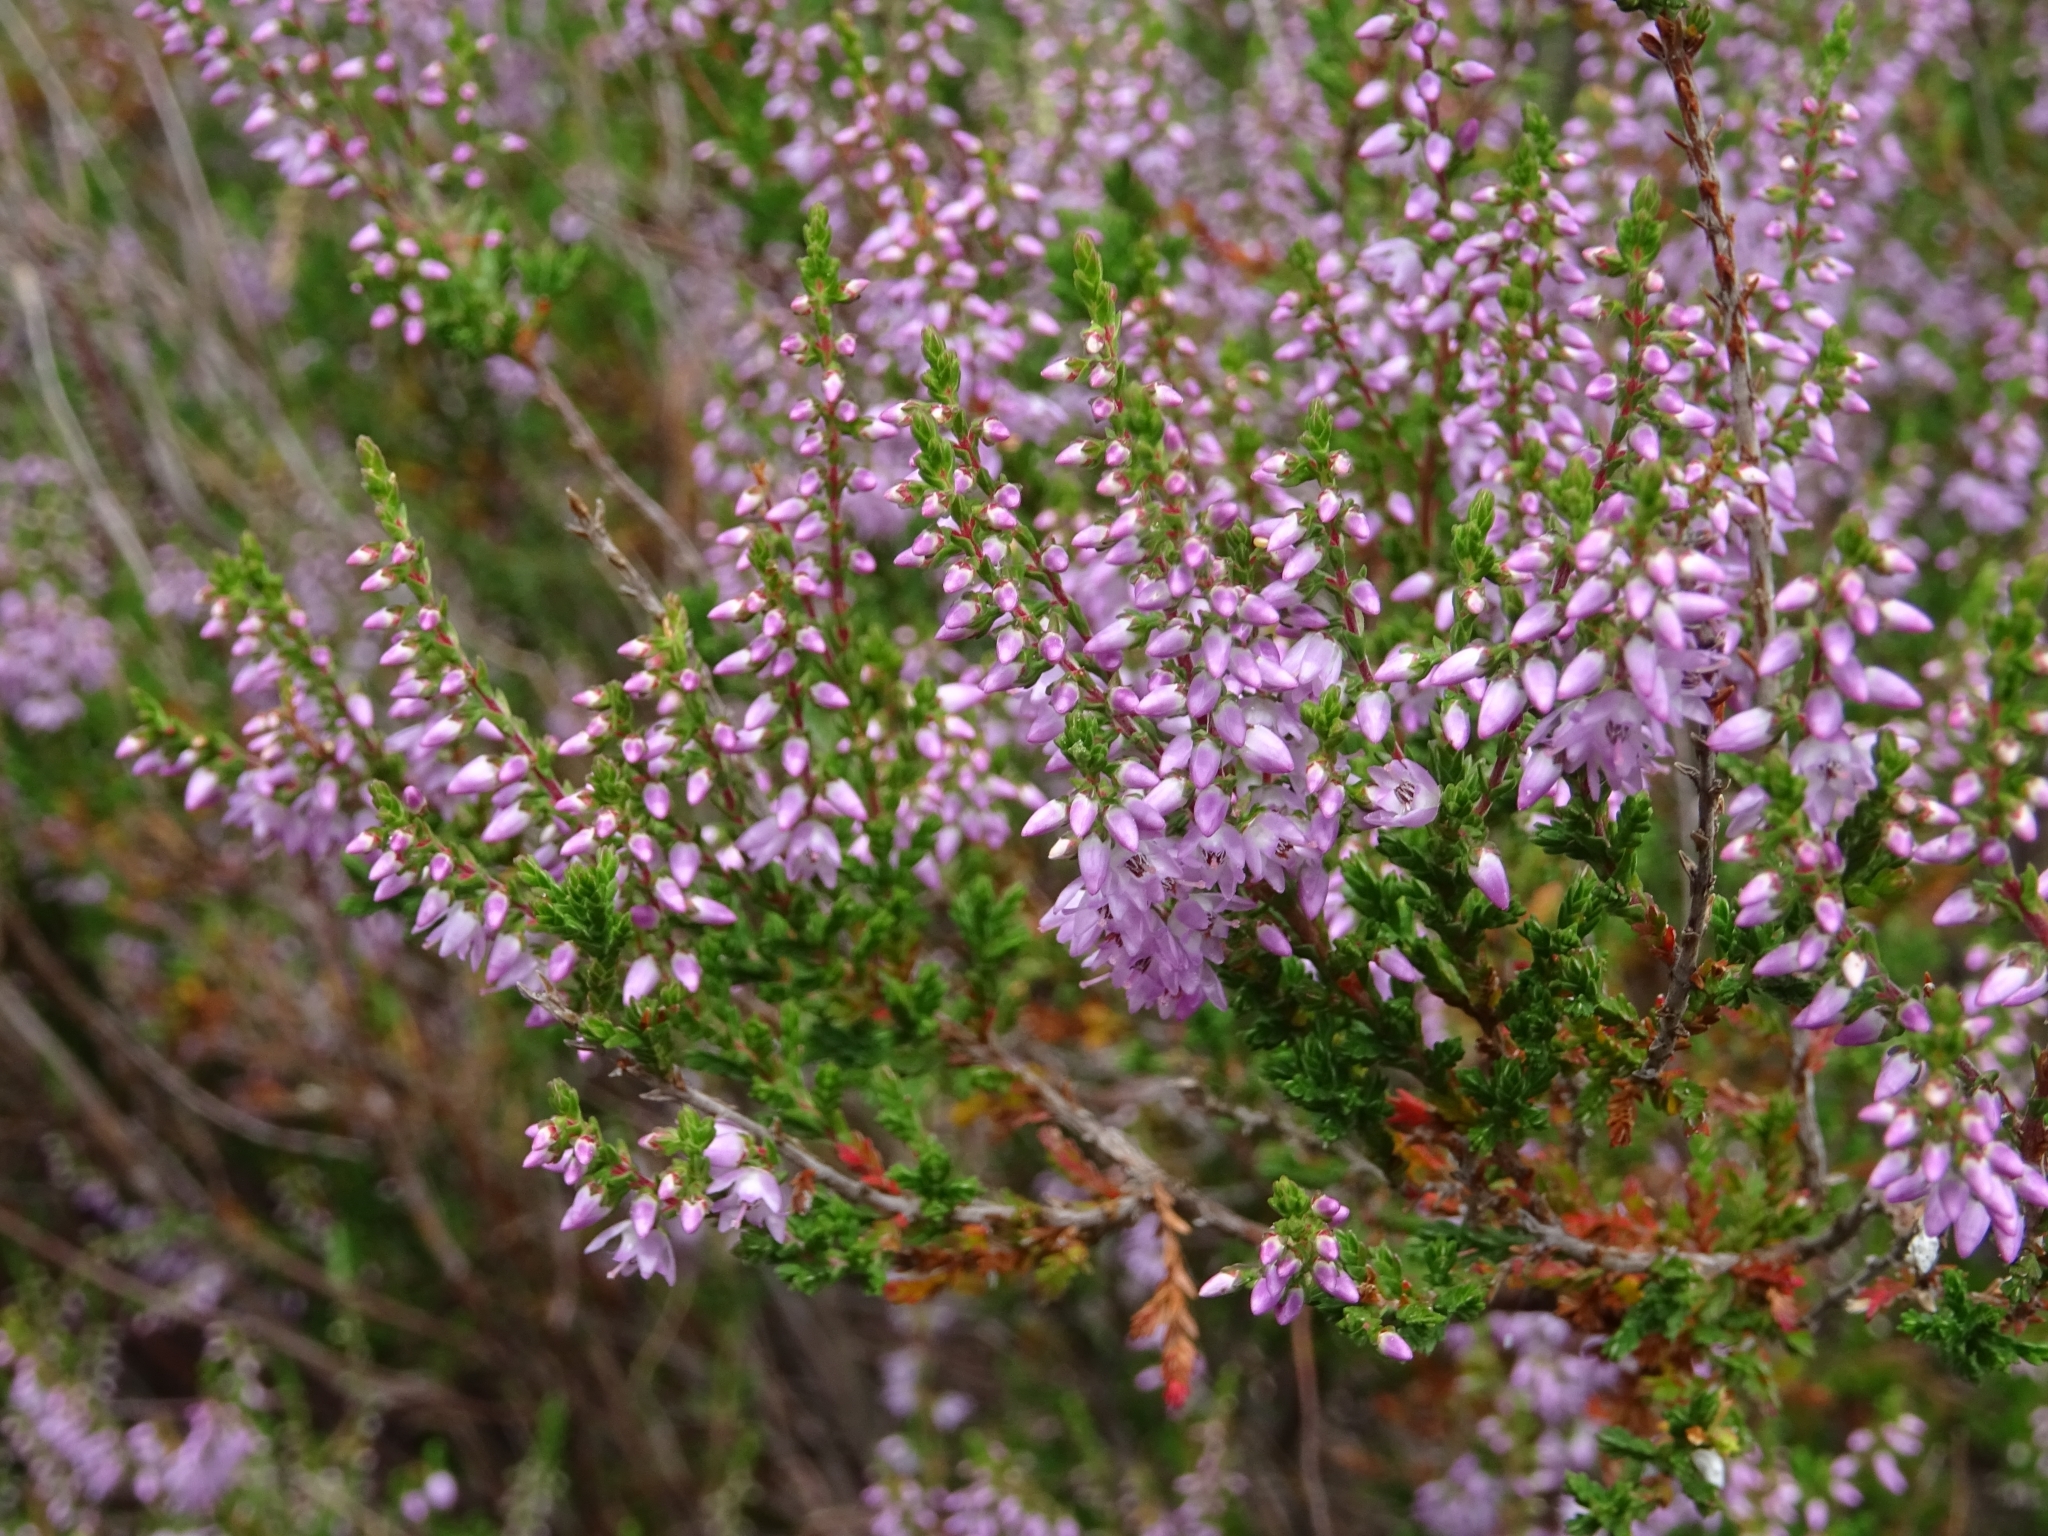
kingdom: Plantae
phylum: Tracheophyta
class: Magnoliopsida
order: Ericales
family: Ericaceae
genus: Calluna
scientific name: Calluna vulgaris
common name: Heather
